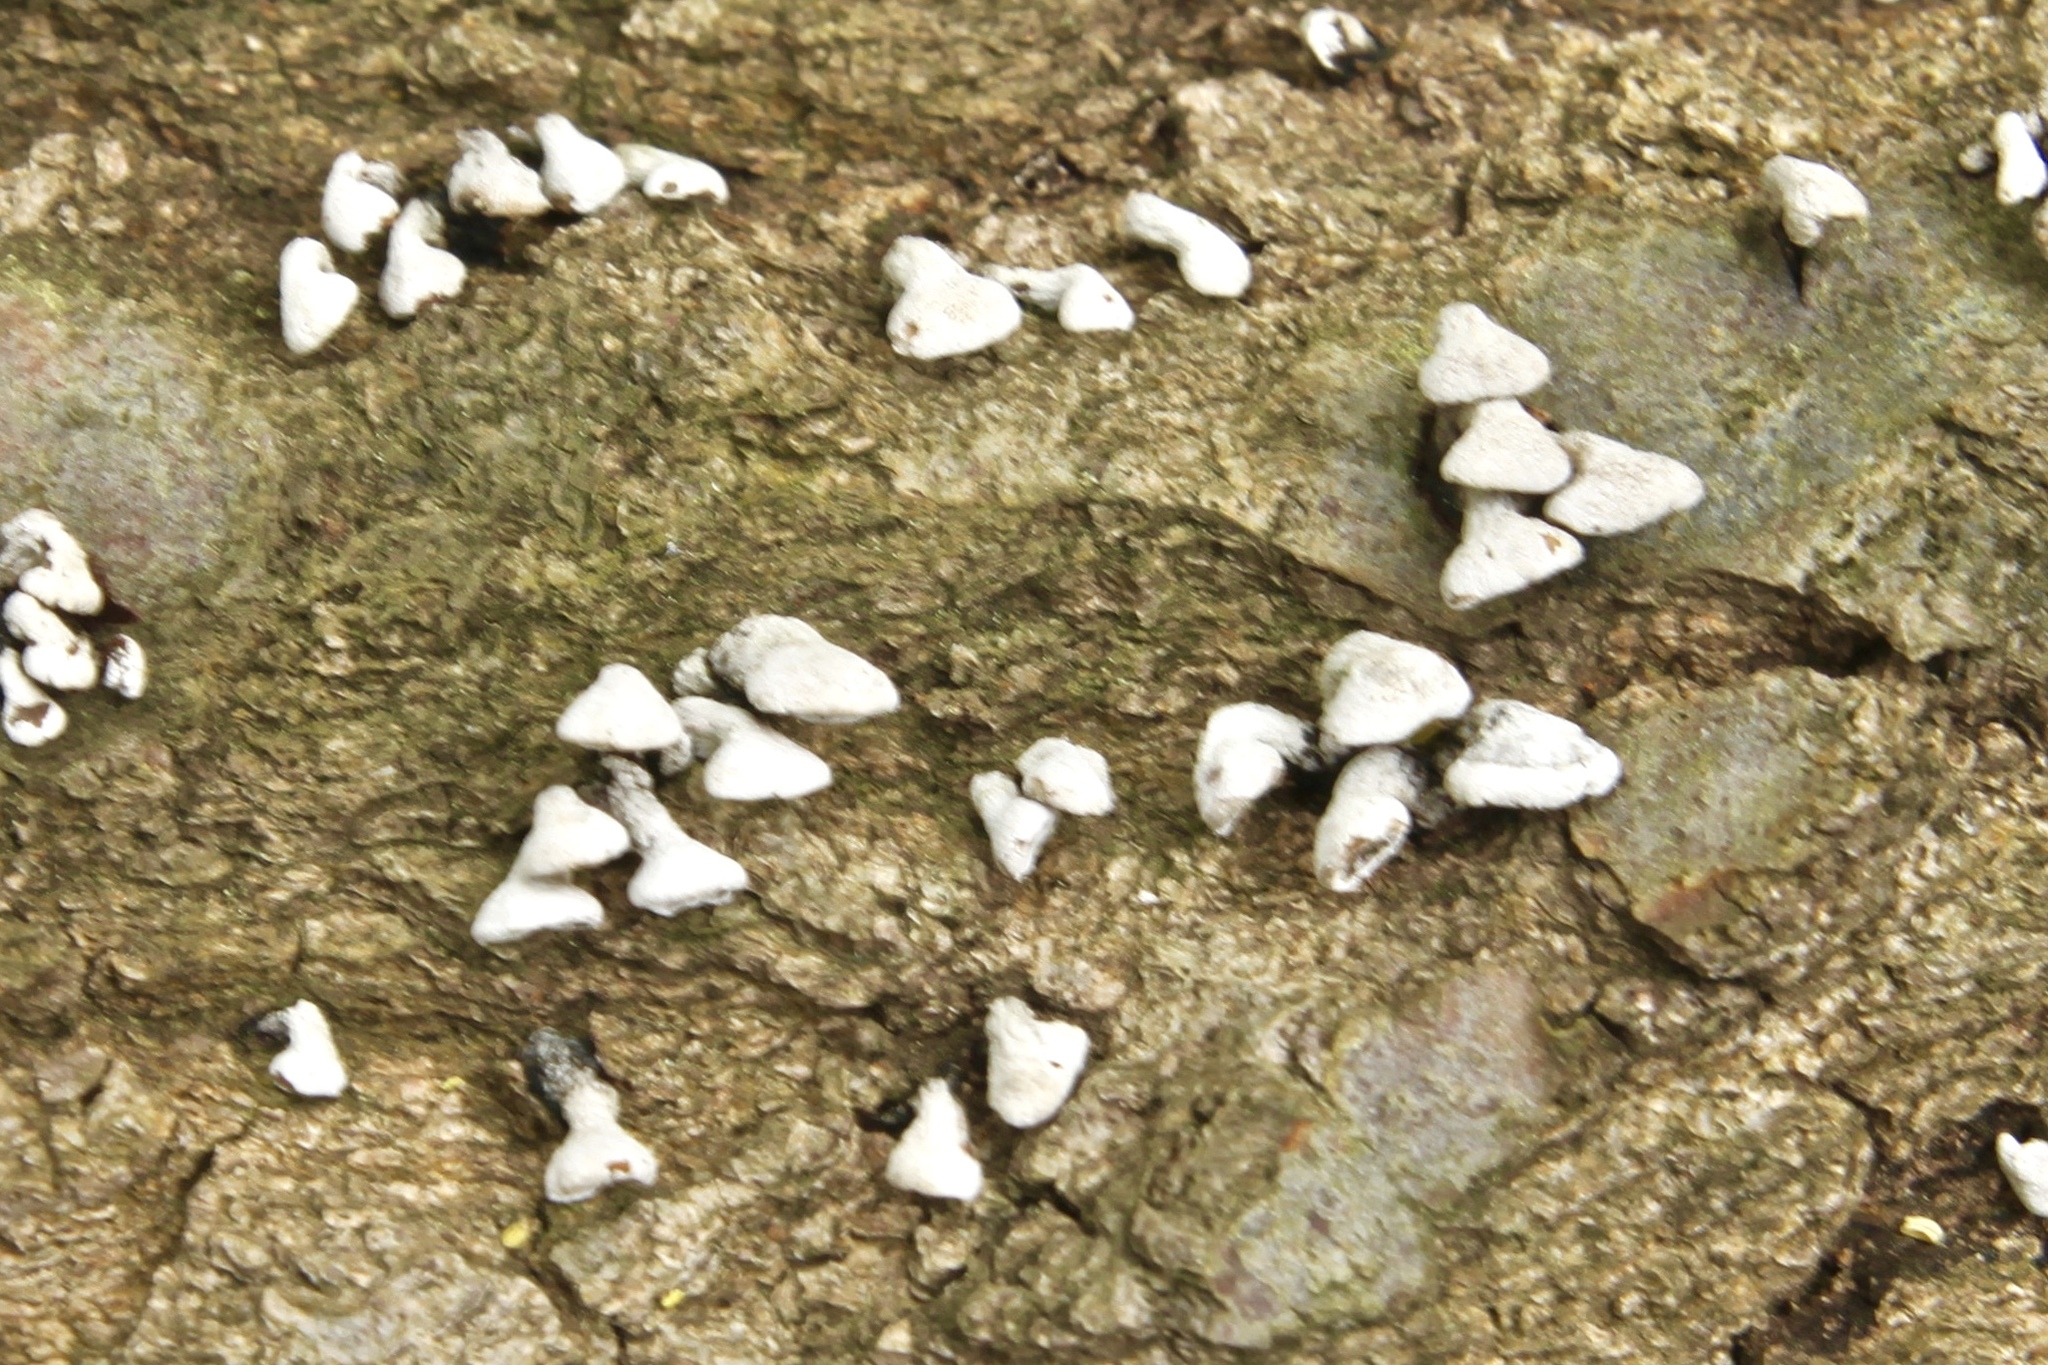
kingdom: Fungi
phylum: Basidiomycota
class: Agaricomycetes
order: Agaricales
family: Schizophyllaceae
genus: Porodisculus
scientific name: Porodisculus pendulus
